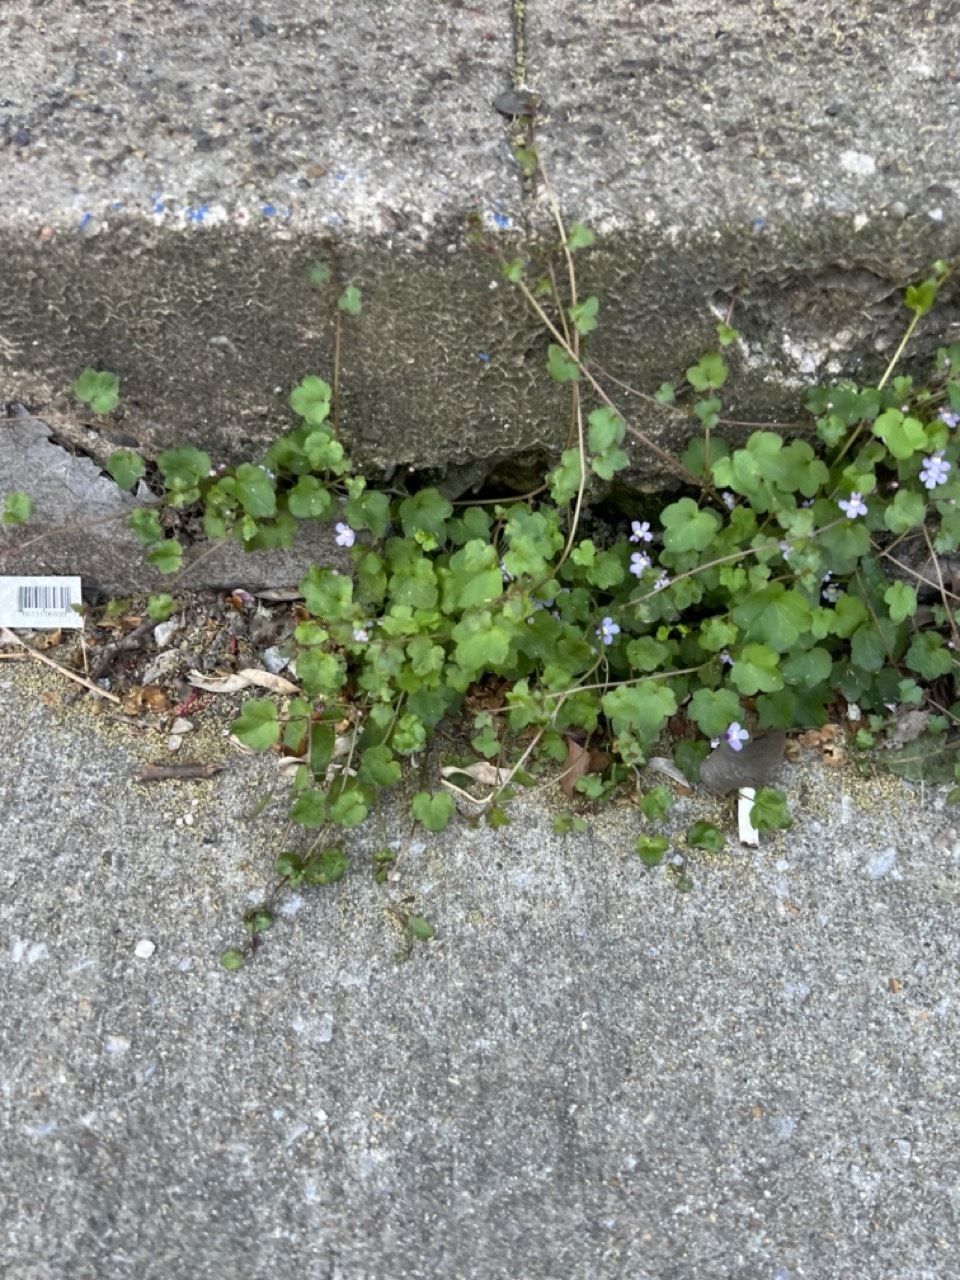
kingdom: Plantae
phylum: Tracheophyta
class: Magnoliopsida
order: Lamiales
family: Plantaginaceae
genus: Cymbalaria
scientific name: Cymbalaria muralis
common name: Ivy-leaved toadflax
